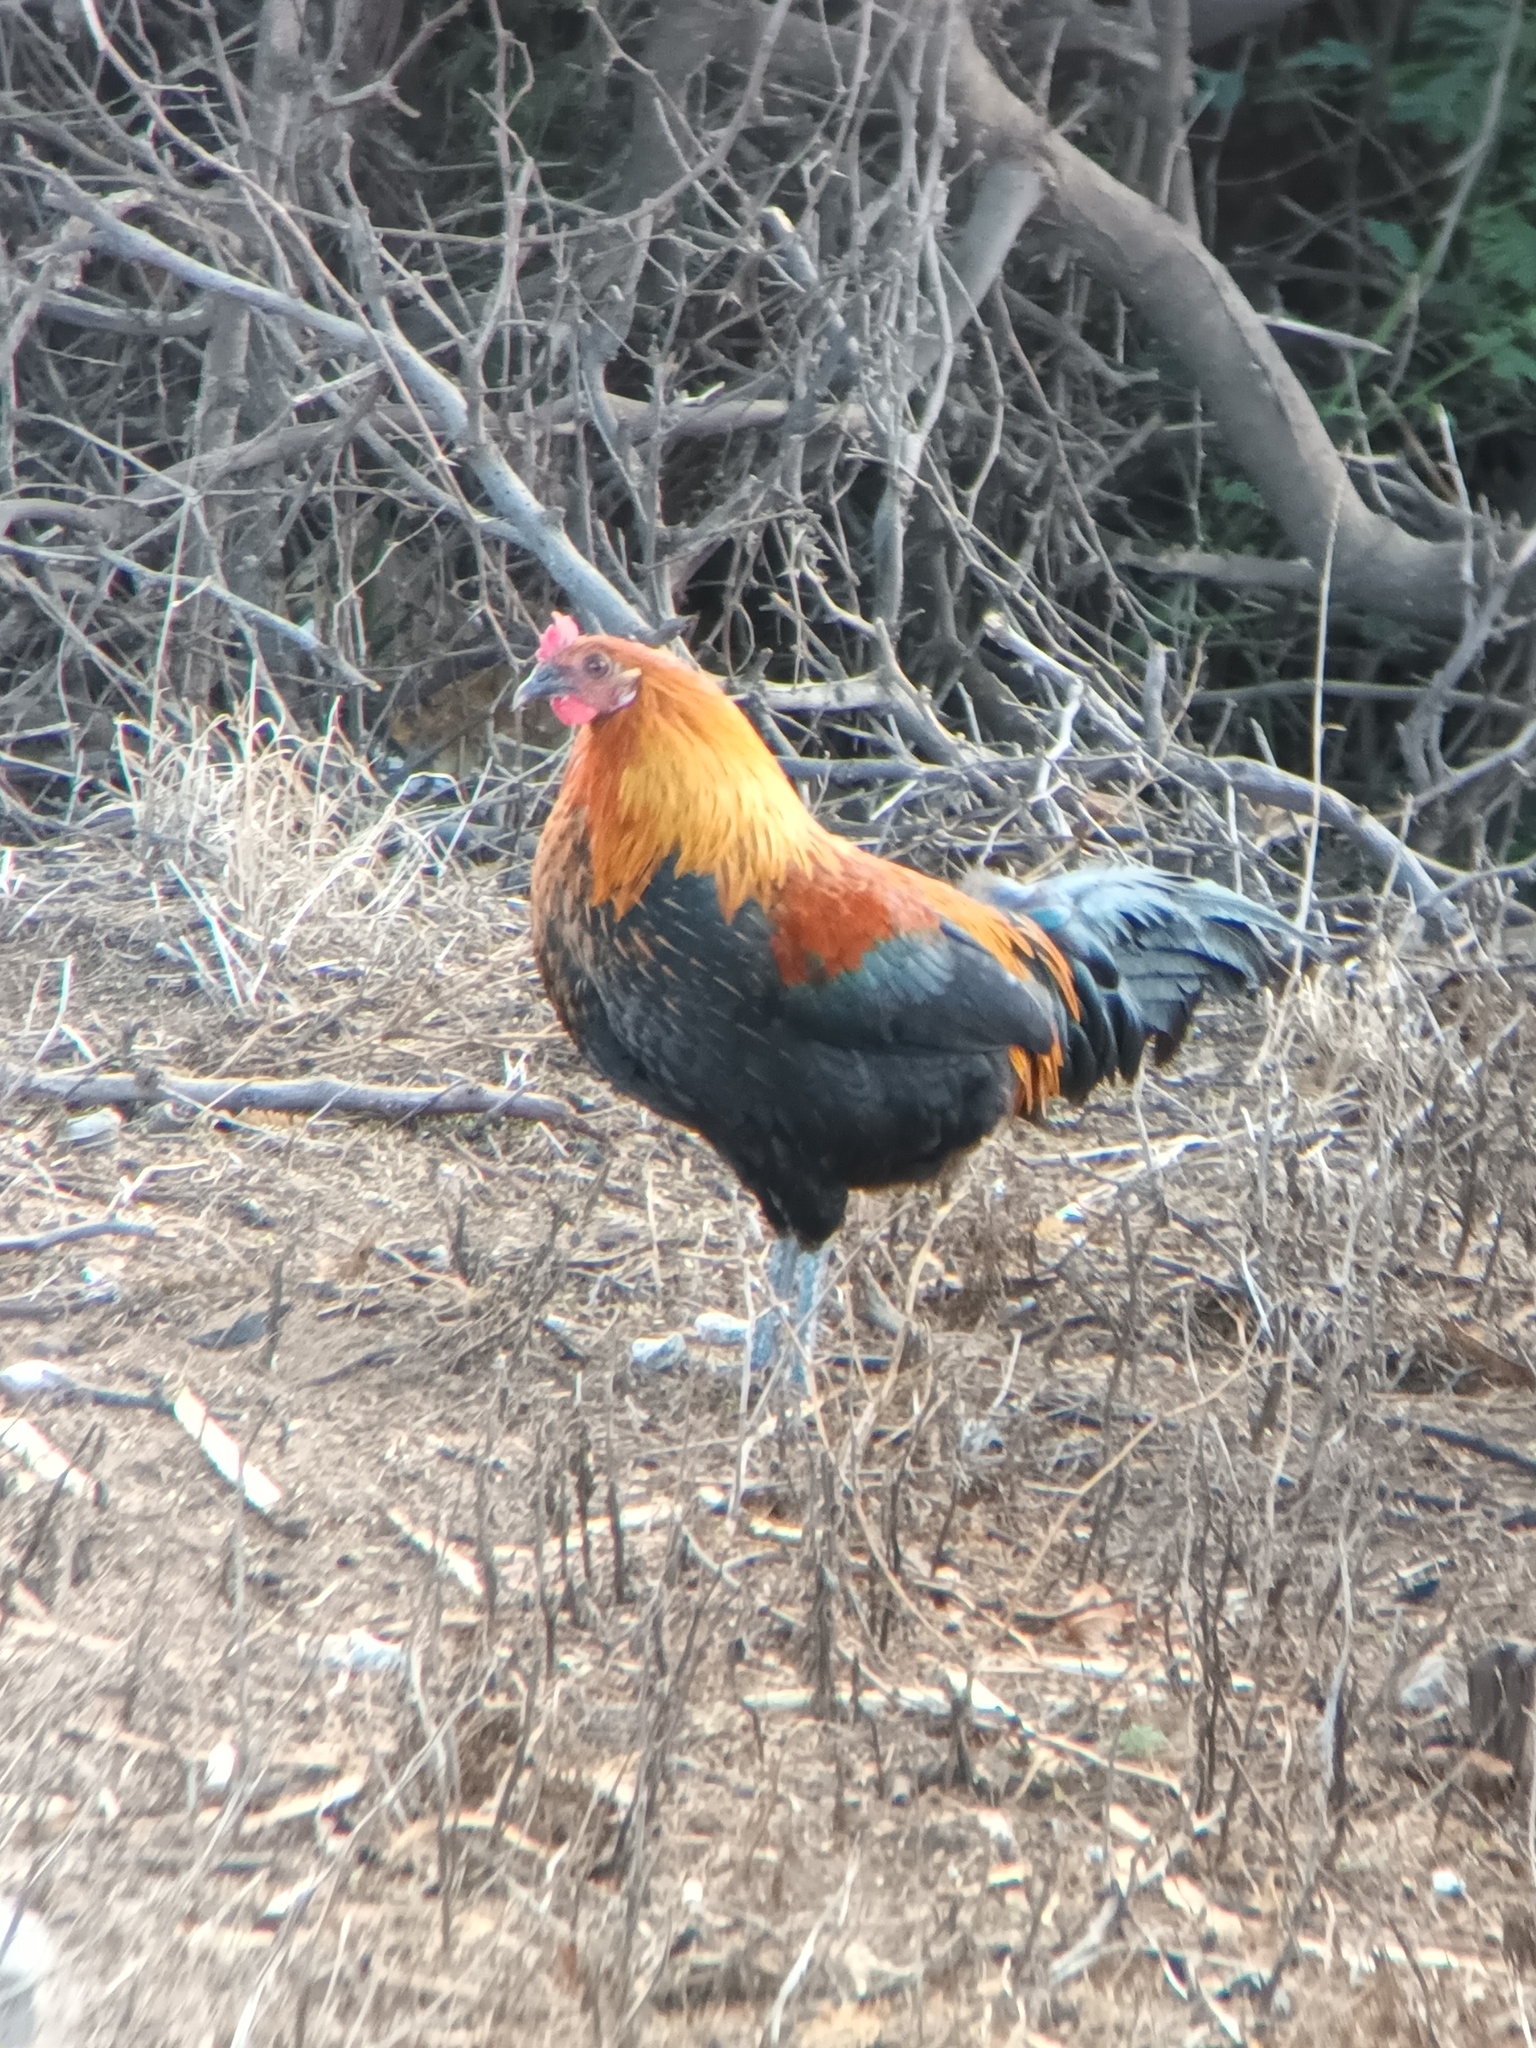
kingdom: Animalia
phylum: Chordata
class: Aves
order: Galliformes
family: Phasianidae
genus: Gallus
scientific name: Gallus gallus
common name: Red junglefowl
